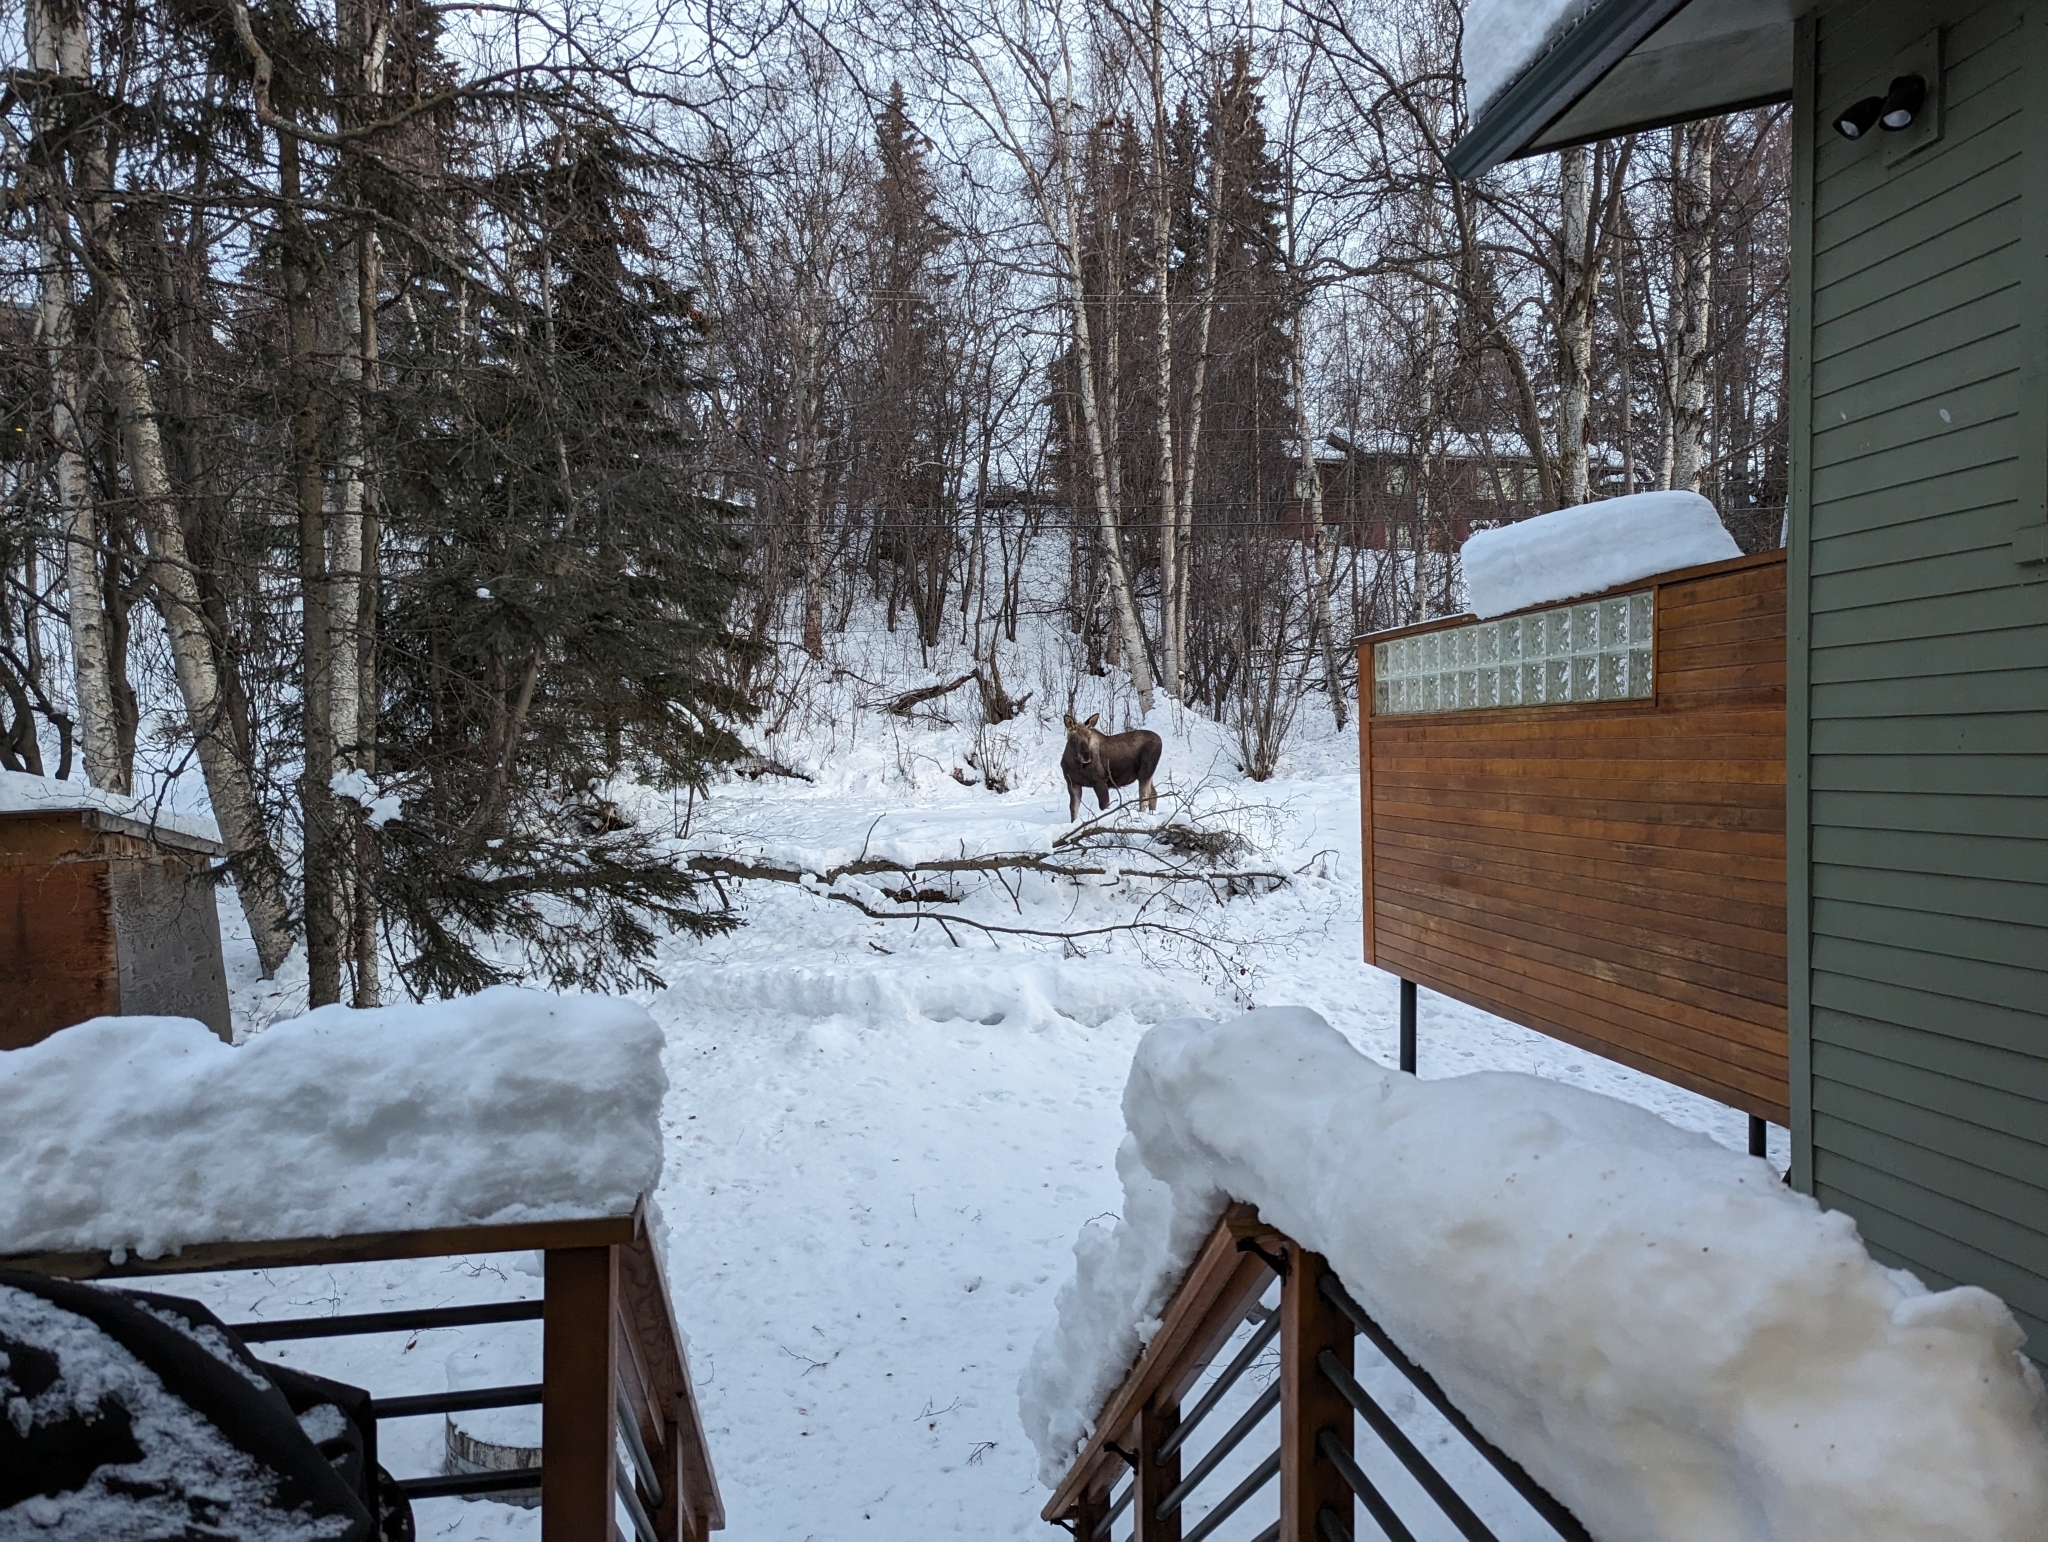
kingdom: Animalia
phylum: Chordata
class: Mammalia
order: Artiodactyla
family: Cervidae
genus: Alces
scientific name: Alces alces
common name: Moose
